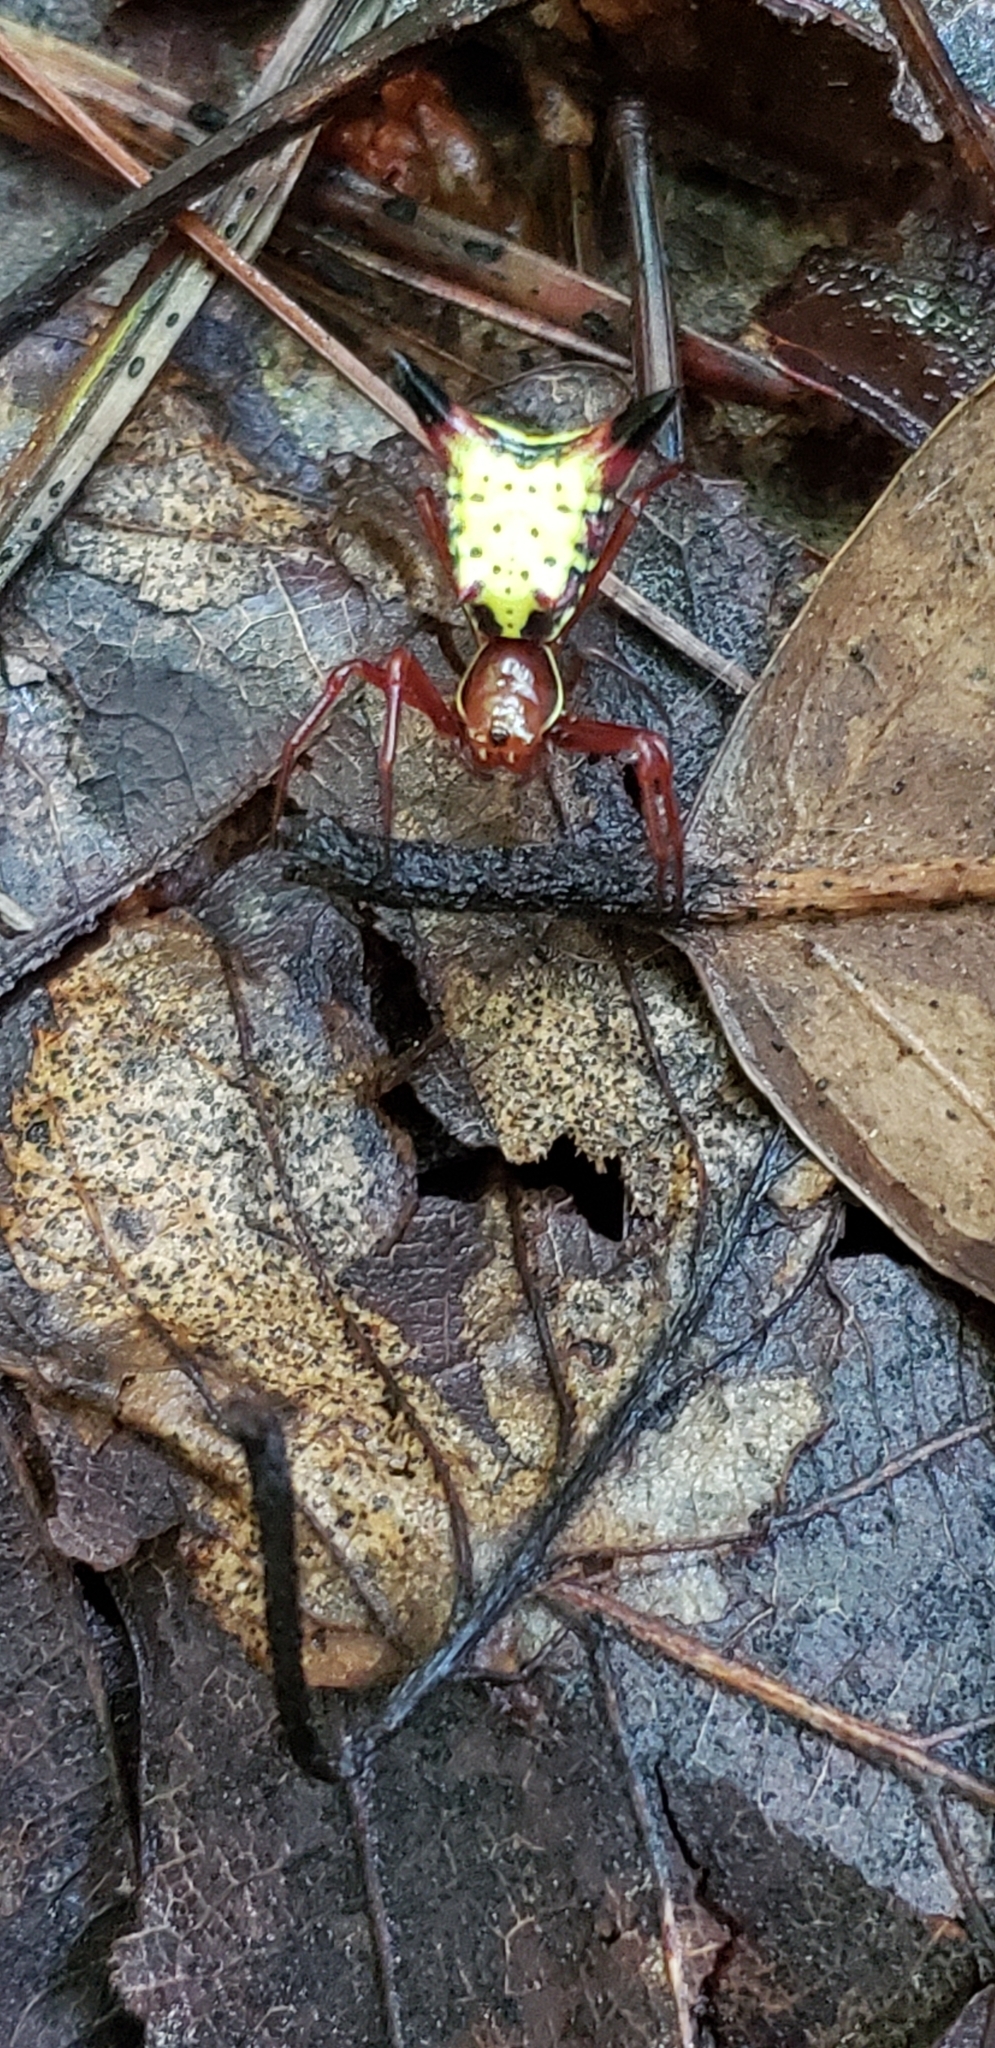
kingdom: Animalia
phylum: Arthropoda
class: Arachnida
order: Araneae
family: Araneidae
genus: Micrathena
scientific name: Micrathena sagittata
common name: Orb weavers
